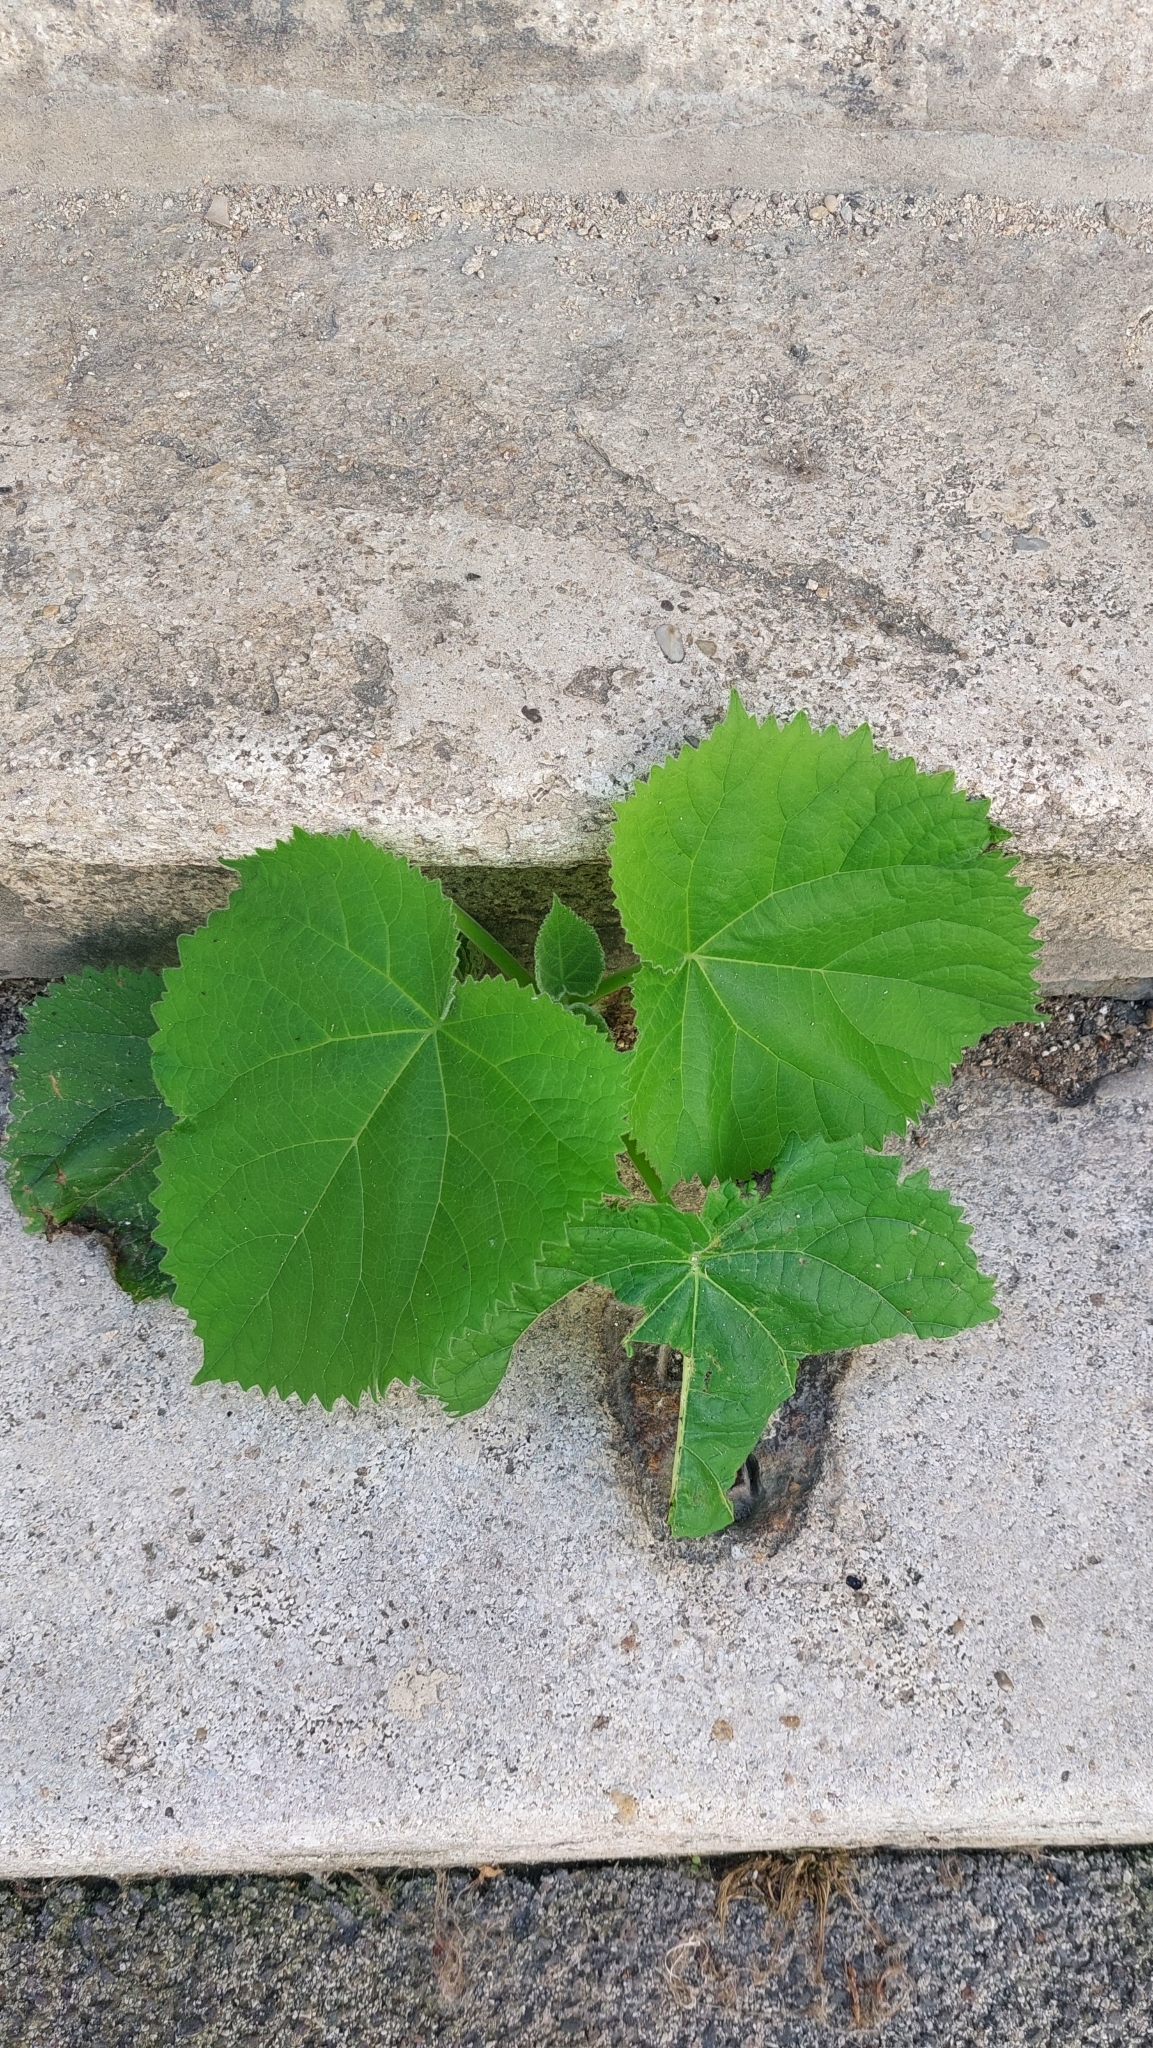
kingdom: Plantae
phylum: Tracheophyta
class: Magnoliopsida
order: Lamiales
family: Paulowniaceae
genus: Paulownia
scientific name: Paulownia tomentosa
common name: Foxglove-tree
